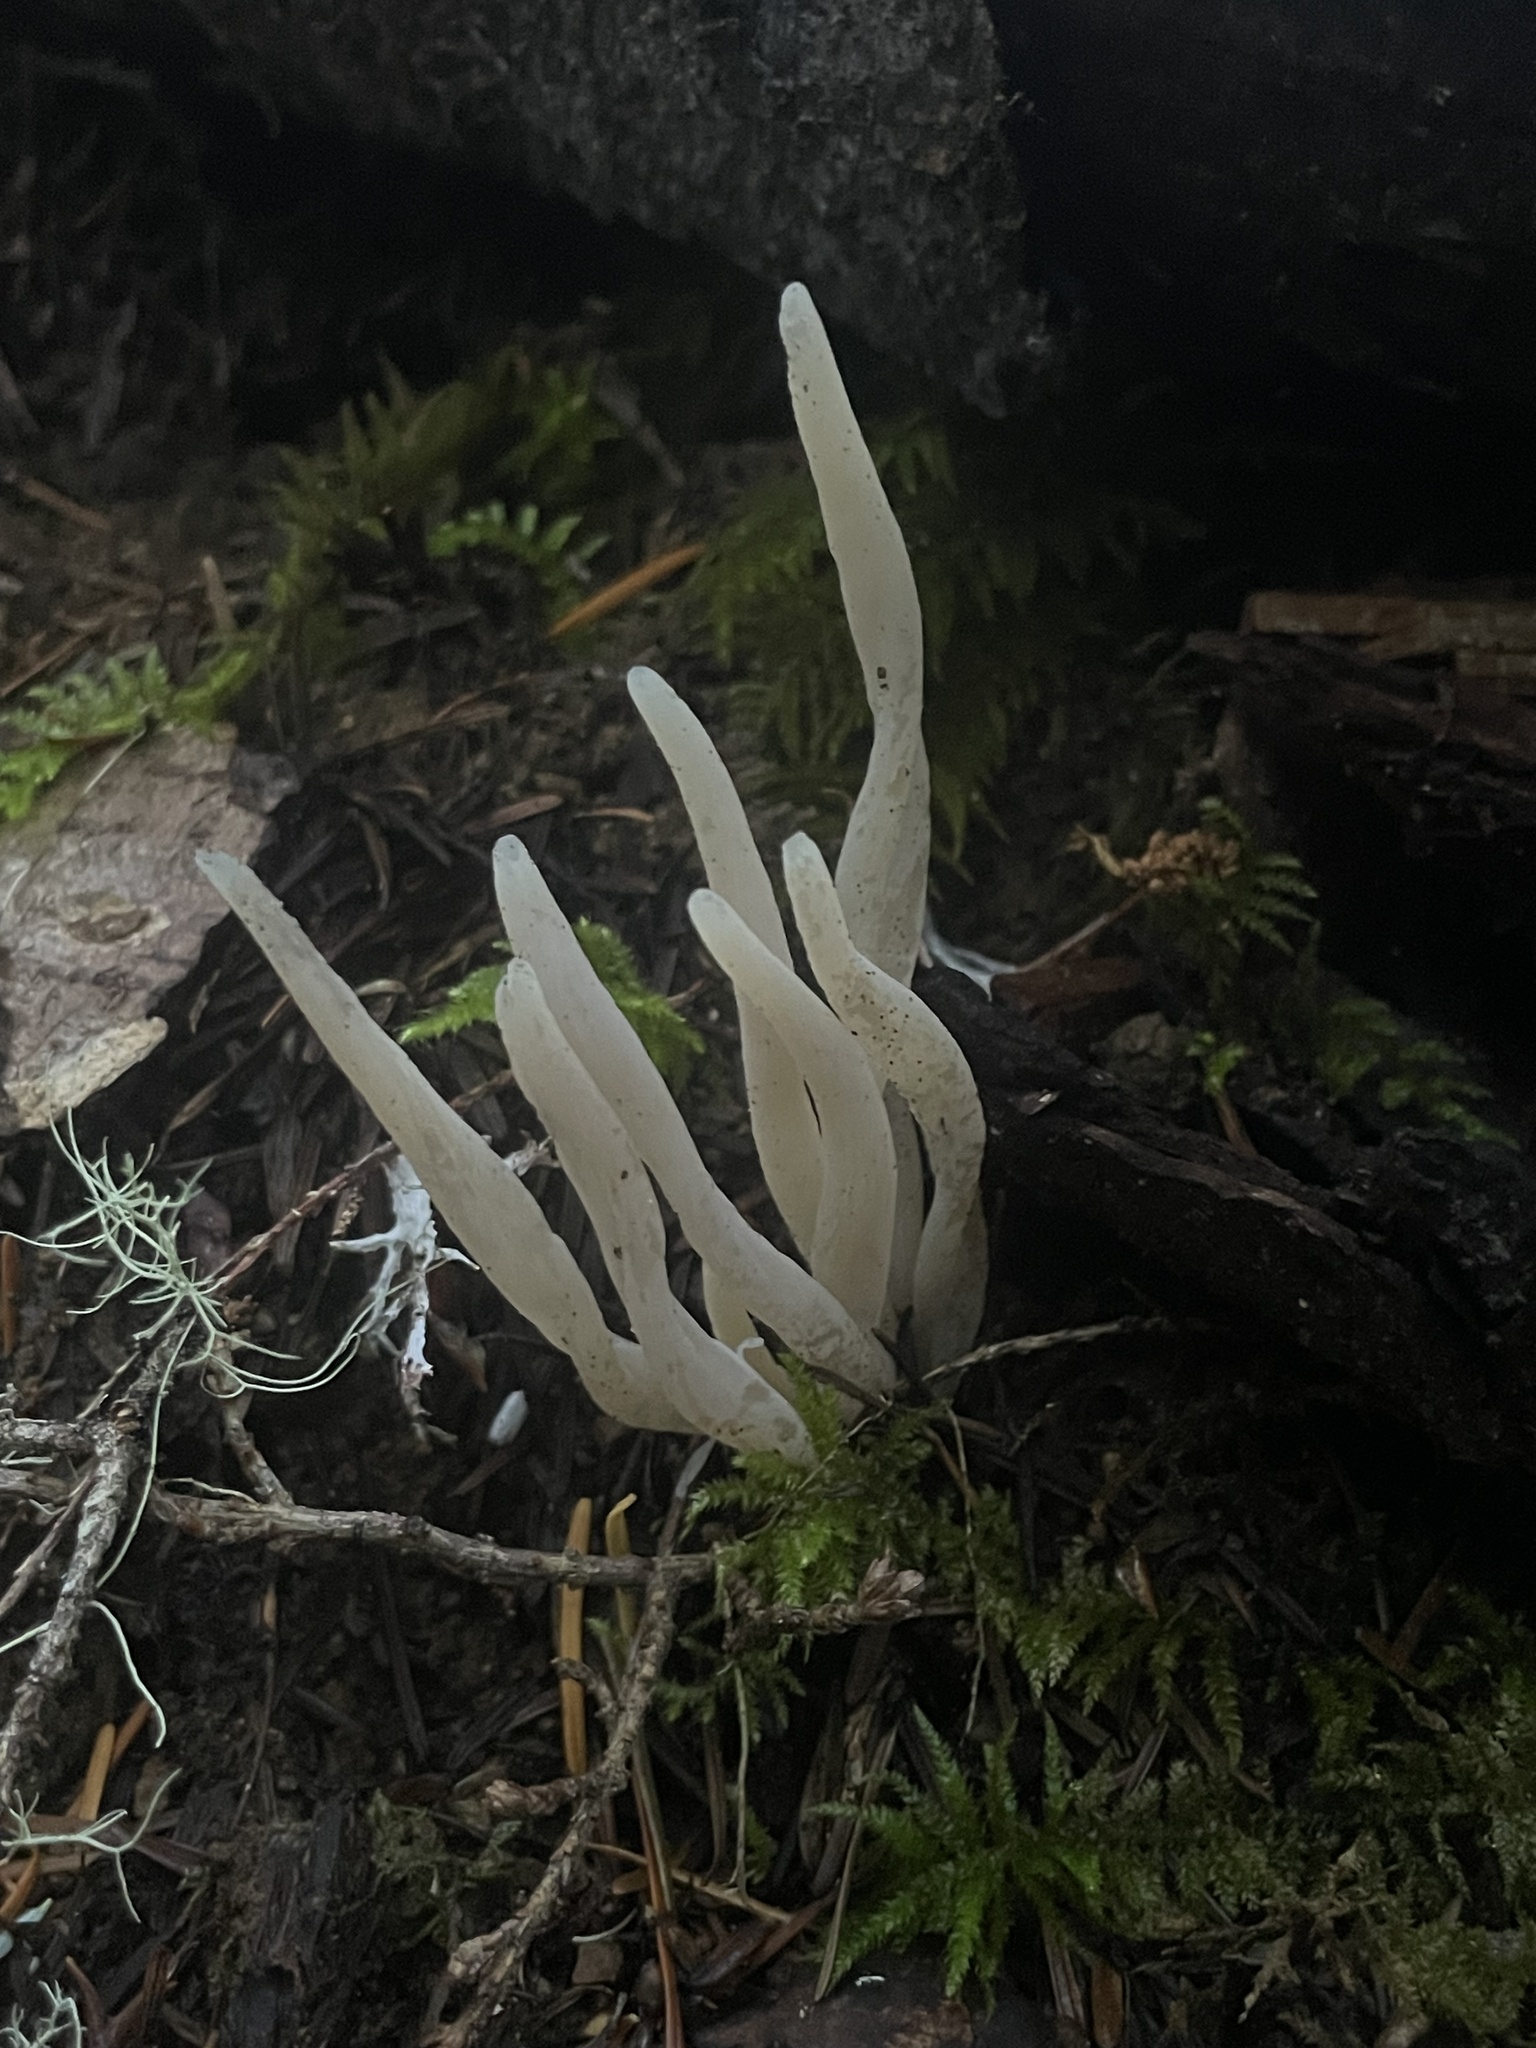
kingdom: Fungi
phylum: Basidiomycota
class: Agaricomycetes
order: Agaricales
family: Clavariaceae
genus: Clavaria
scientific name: Clavaria fragilis
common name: White spindles
